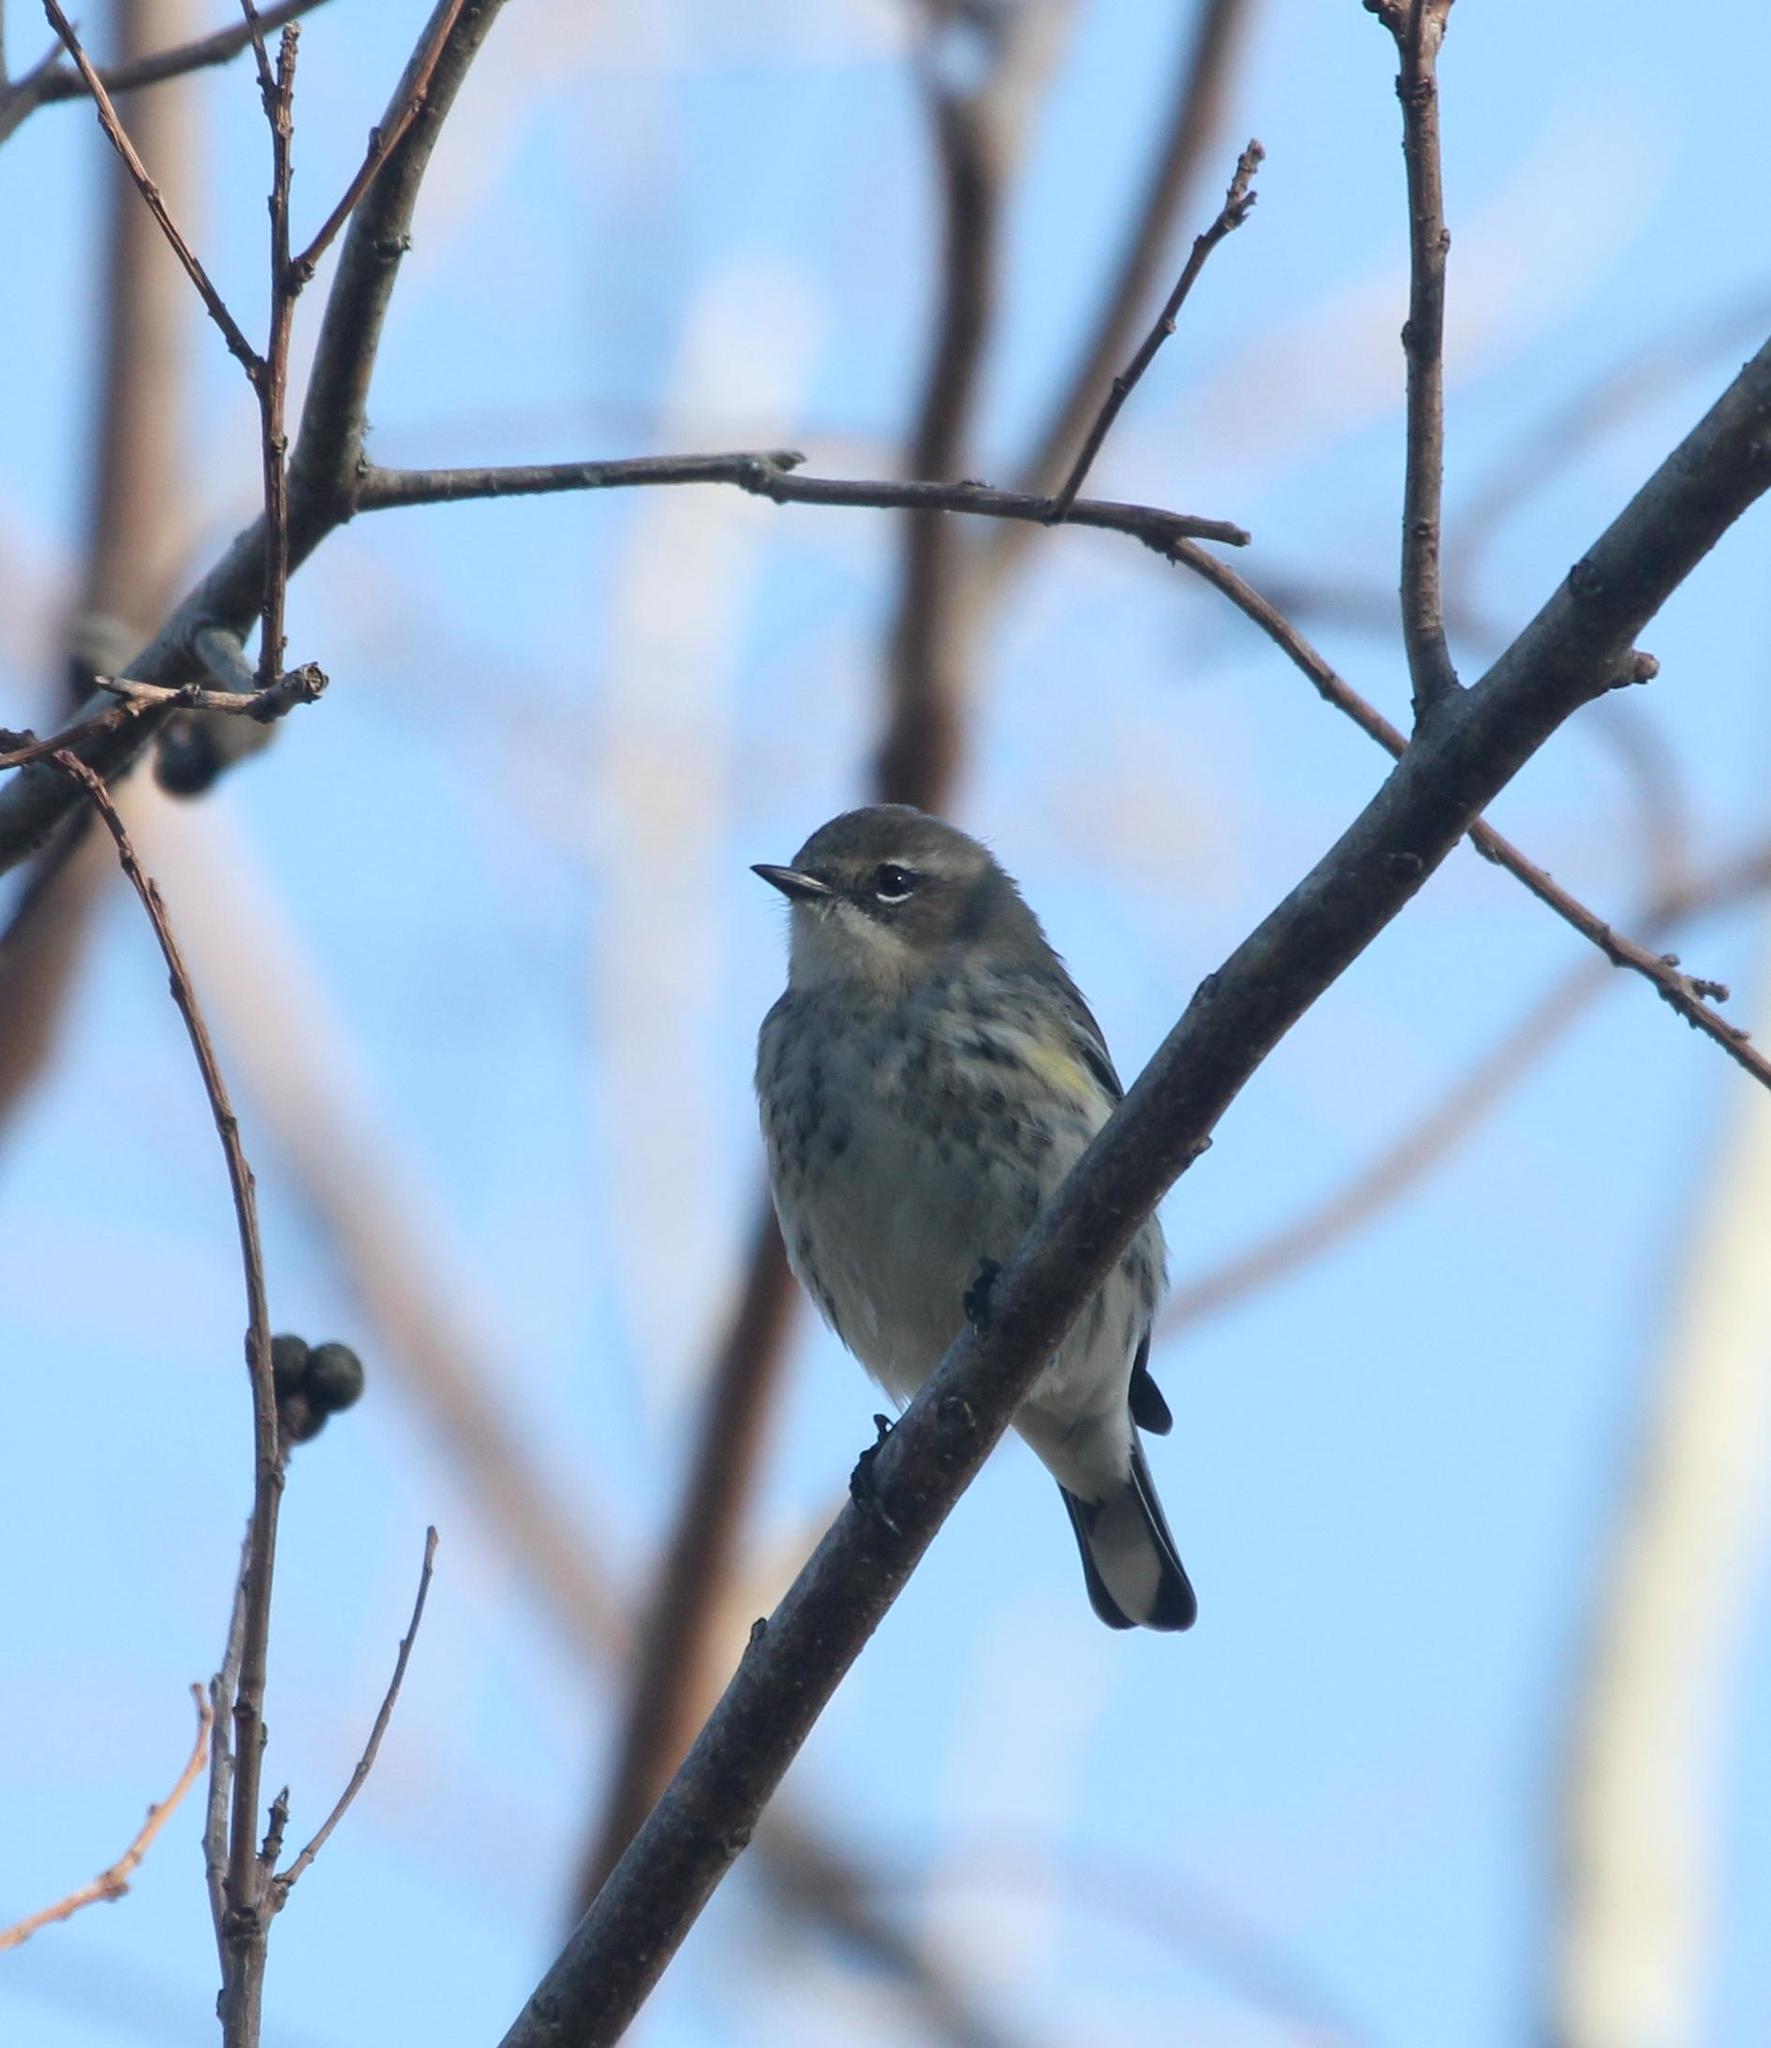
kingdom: Animalia
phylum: Chordata
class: Aves
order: Passeriformes
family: Parulidae
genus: Setophaga
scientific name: Setophaga coronata
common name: Myrtle warbler
